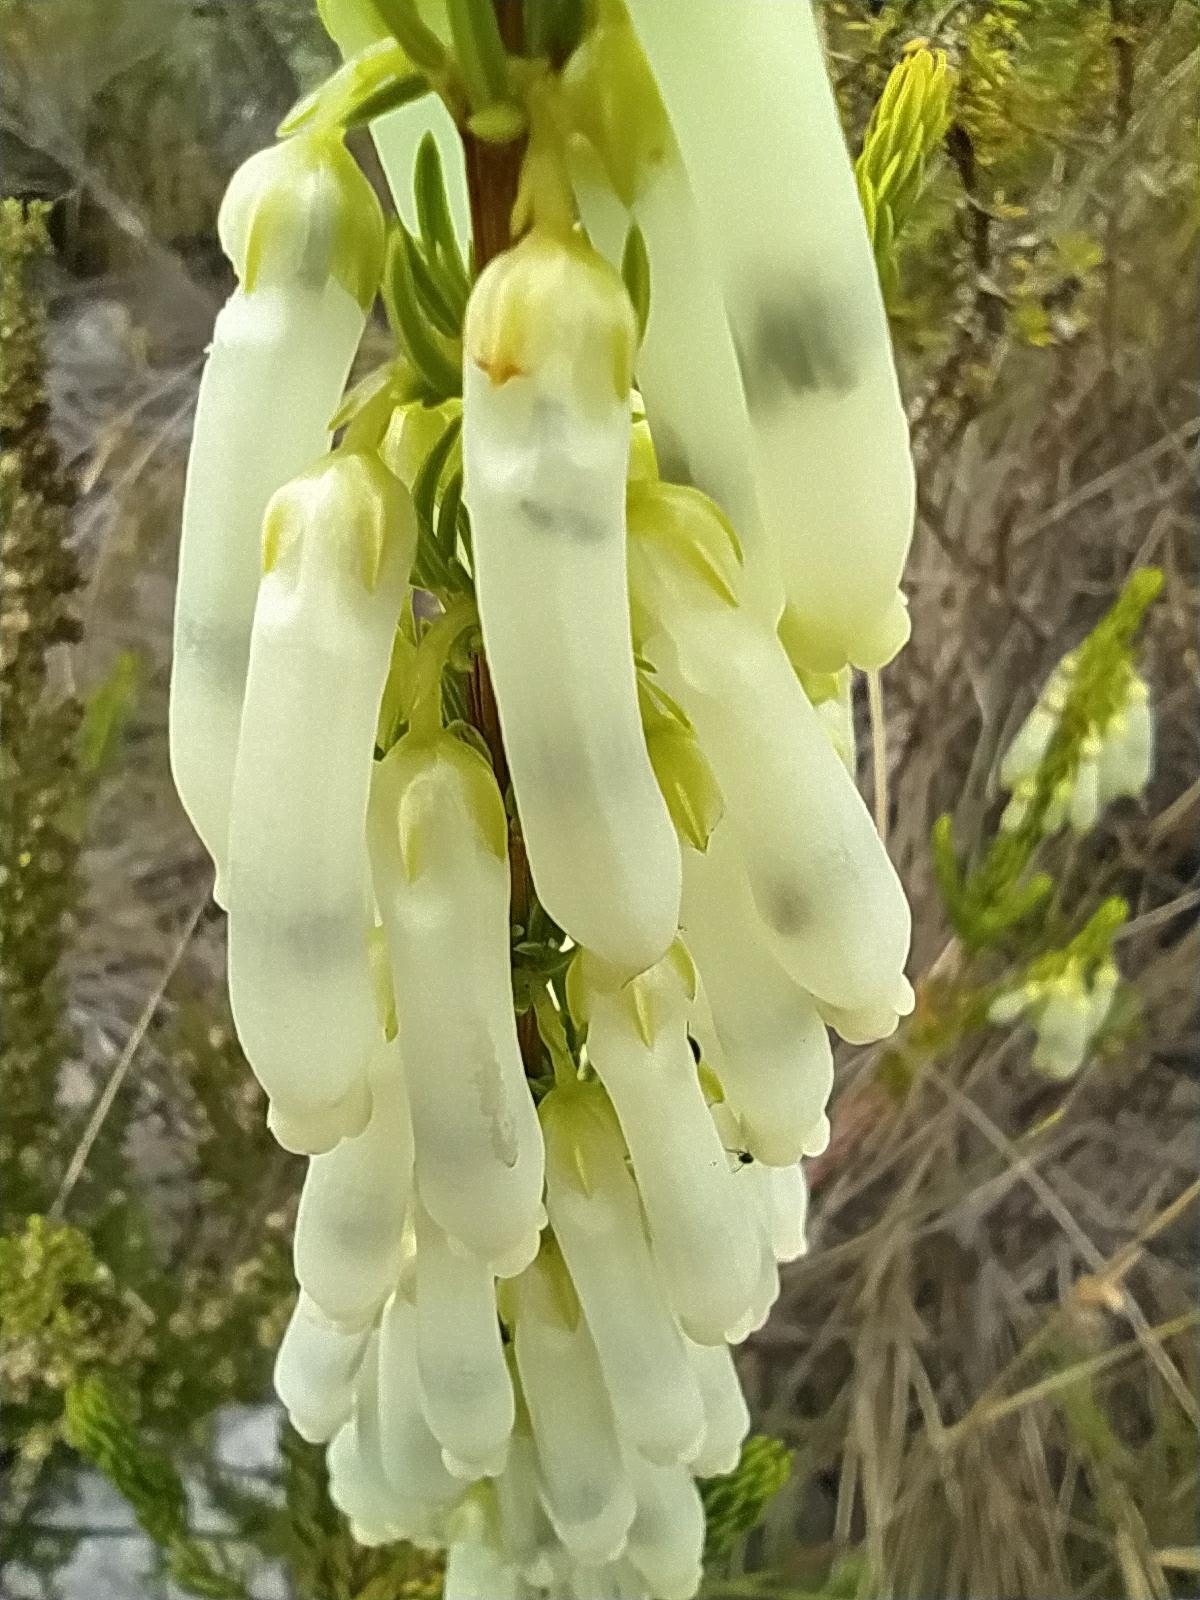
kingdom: Plantae
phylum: Tracheophyta
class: Magnoliopsida
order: Ericales
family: Ericaceae
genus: Erica
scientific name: Erica mammosa
